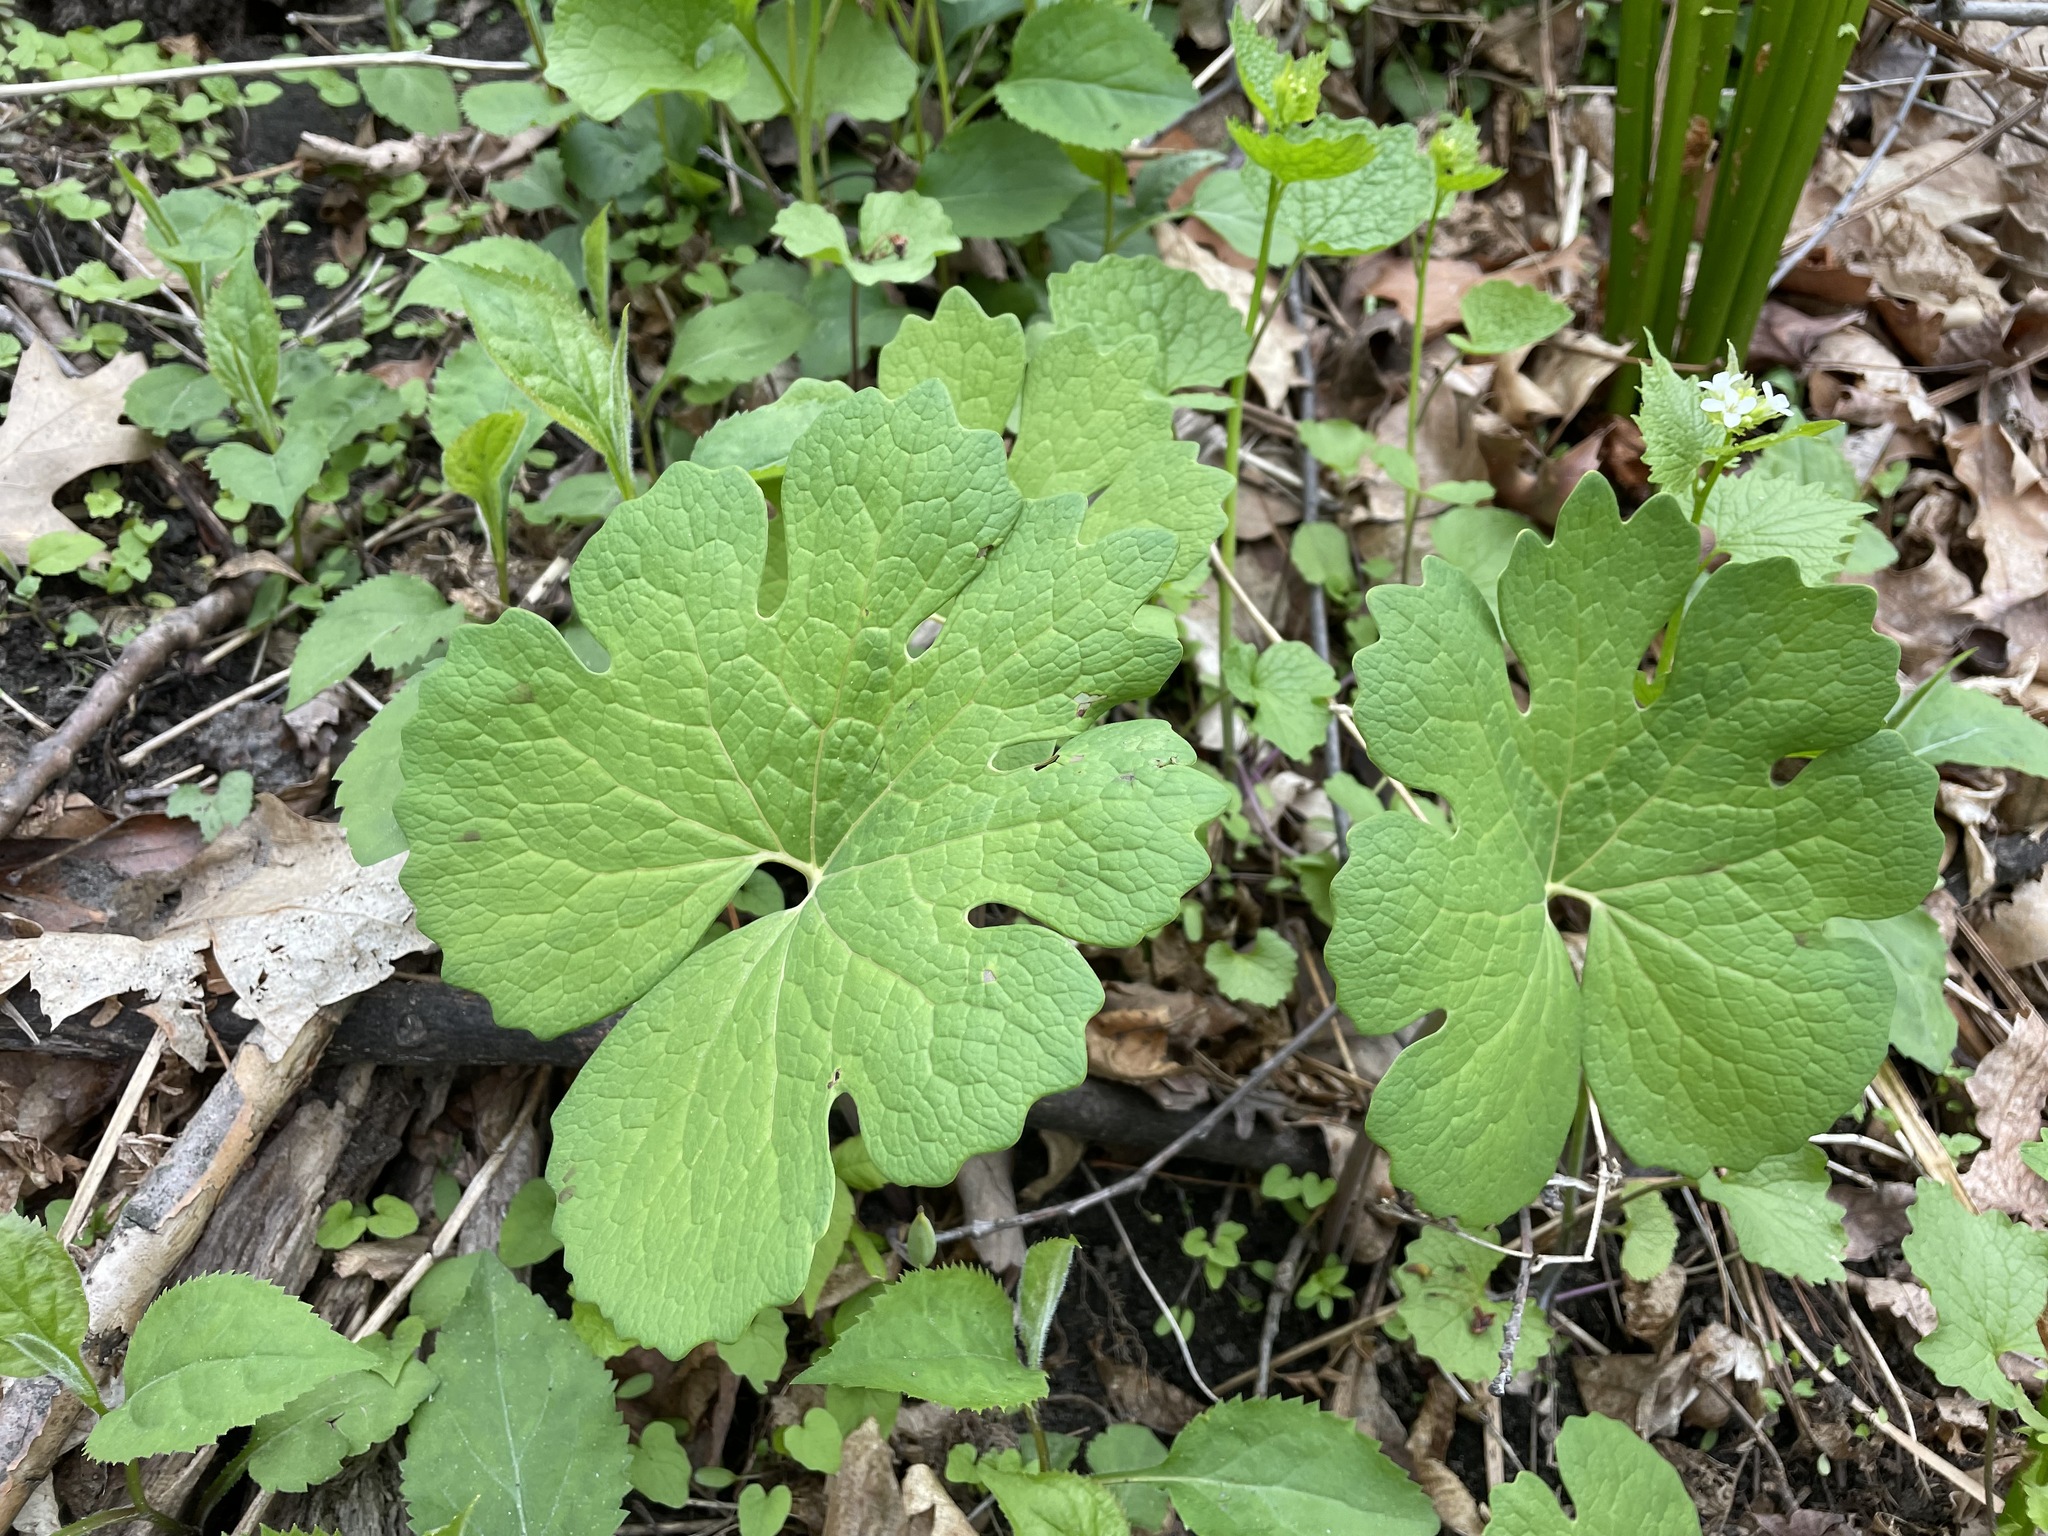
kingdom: Plantae
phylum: Tracheophyta
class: Magnoliopsida
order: Ranunculales
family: Papaveraceae
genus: Sanguinaria
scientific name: Sanguinaria canadensis
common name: Bloodroot
